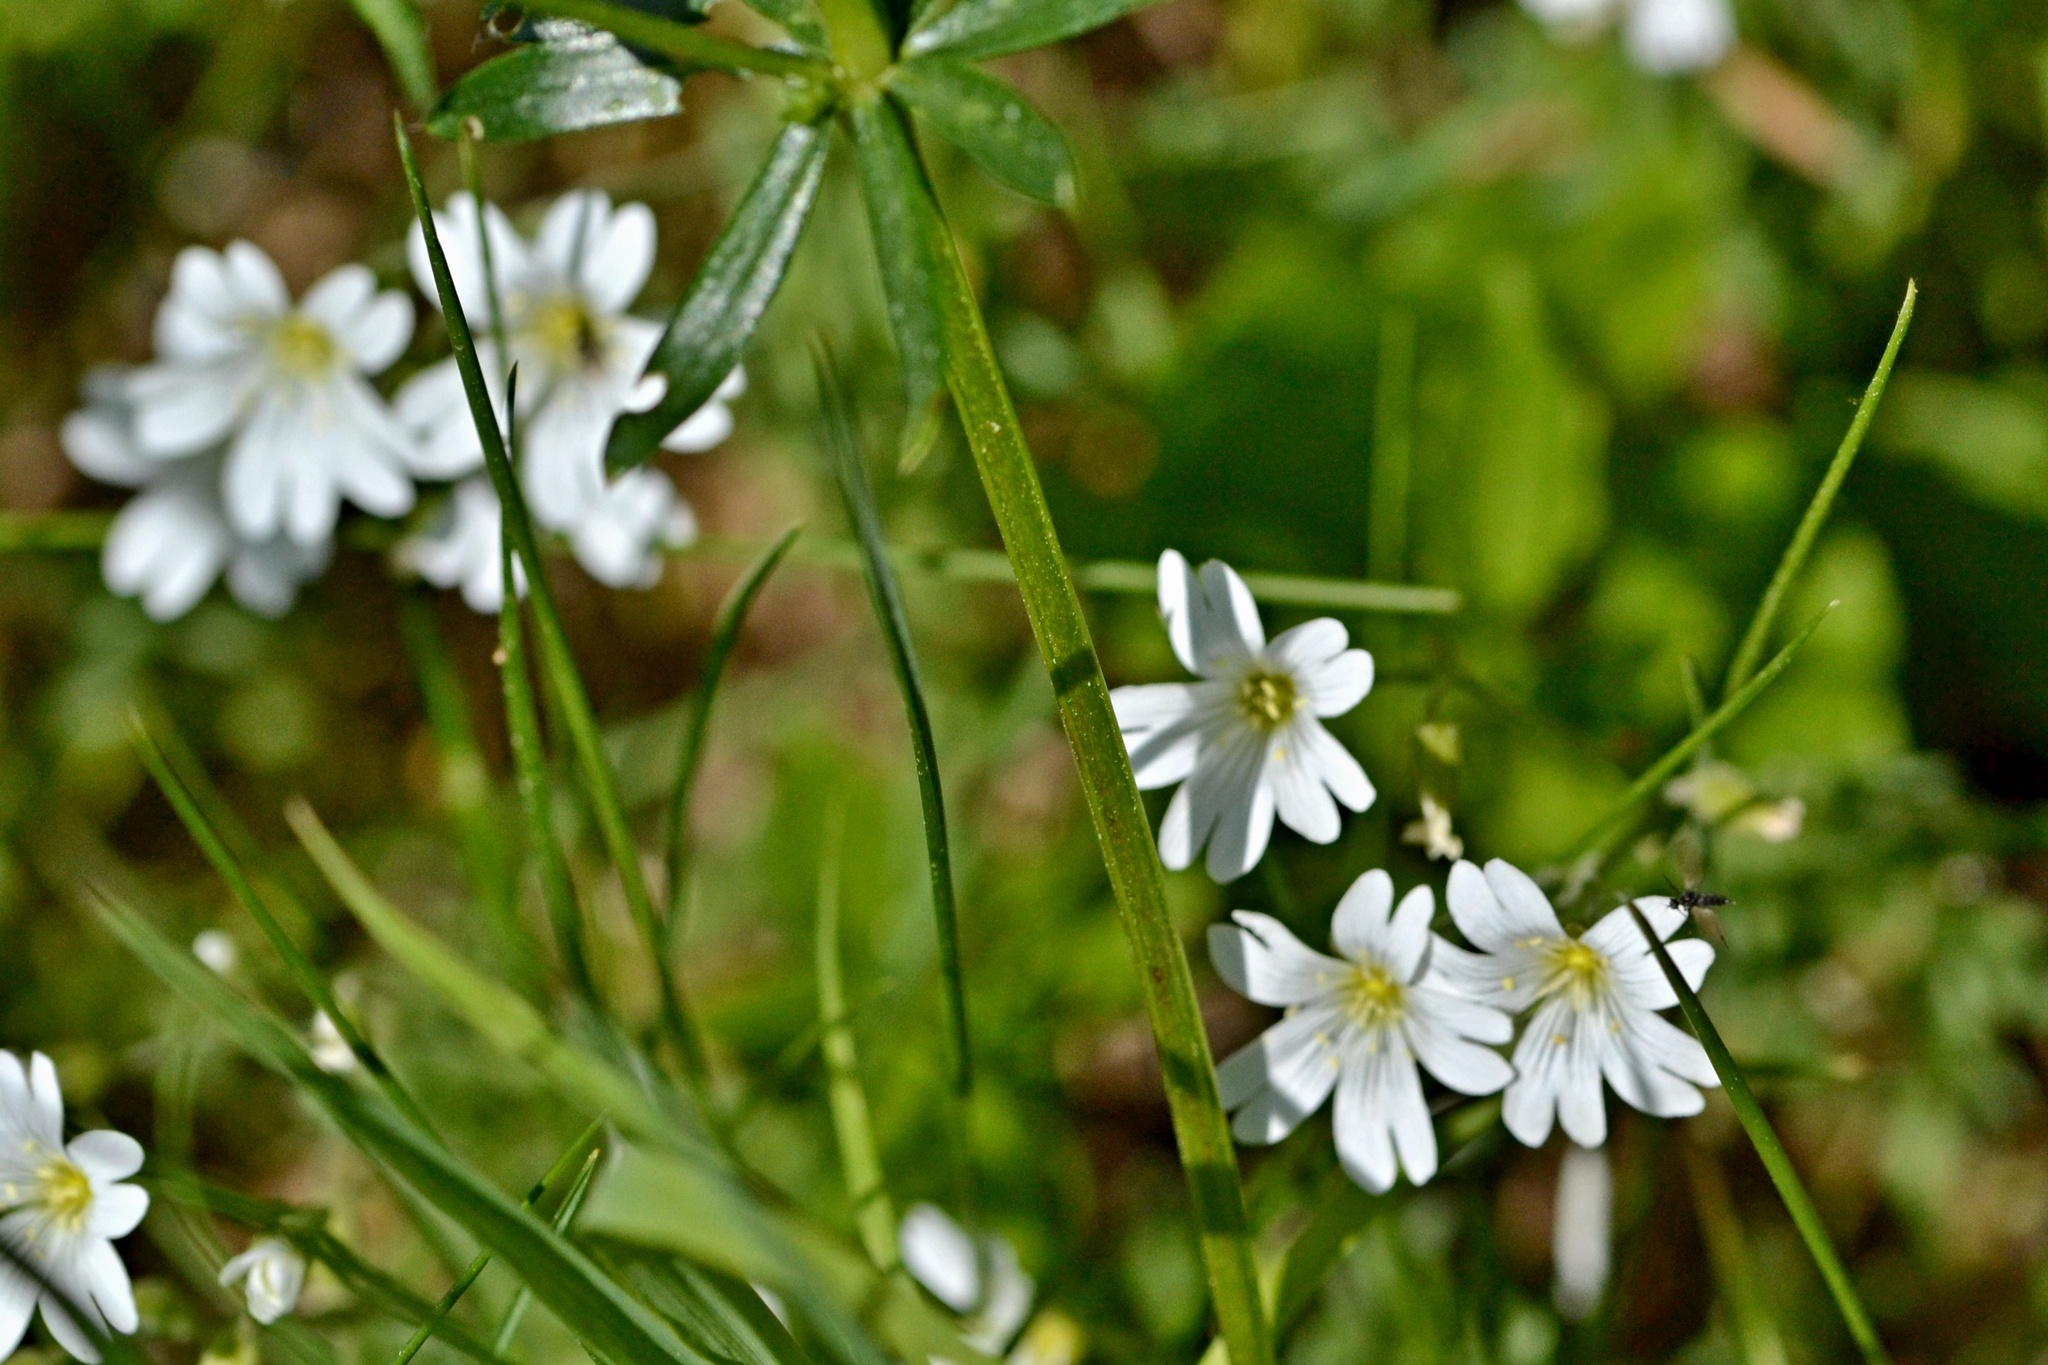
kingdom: Plantae
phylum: Tracheophyta
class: Magnoliopsida
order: Caryophyllales
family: Caryophyllaceae
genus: Cerastium
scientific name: Cerastium arvense
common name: Field mouse-ear
